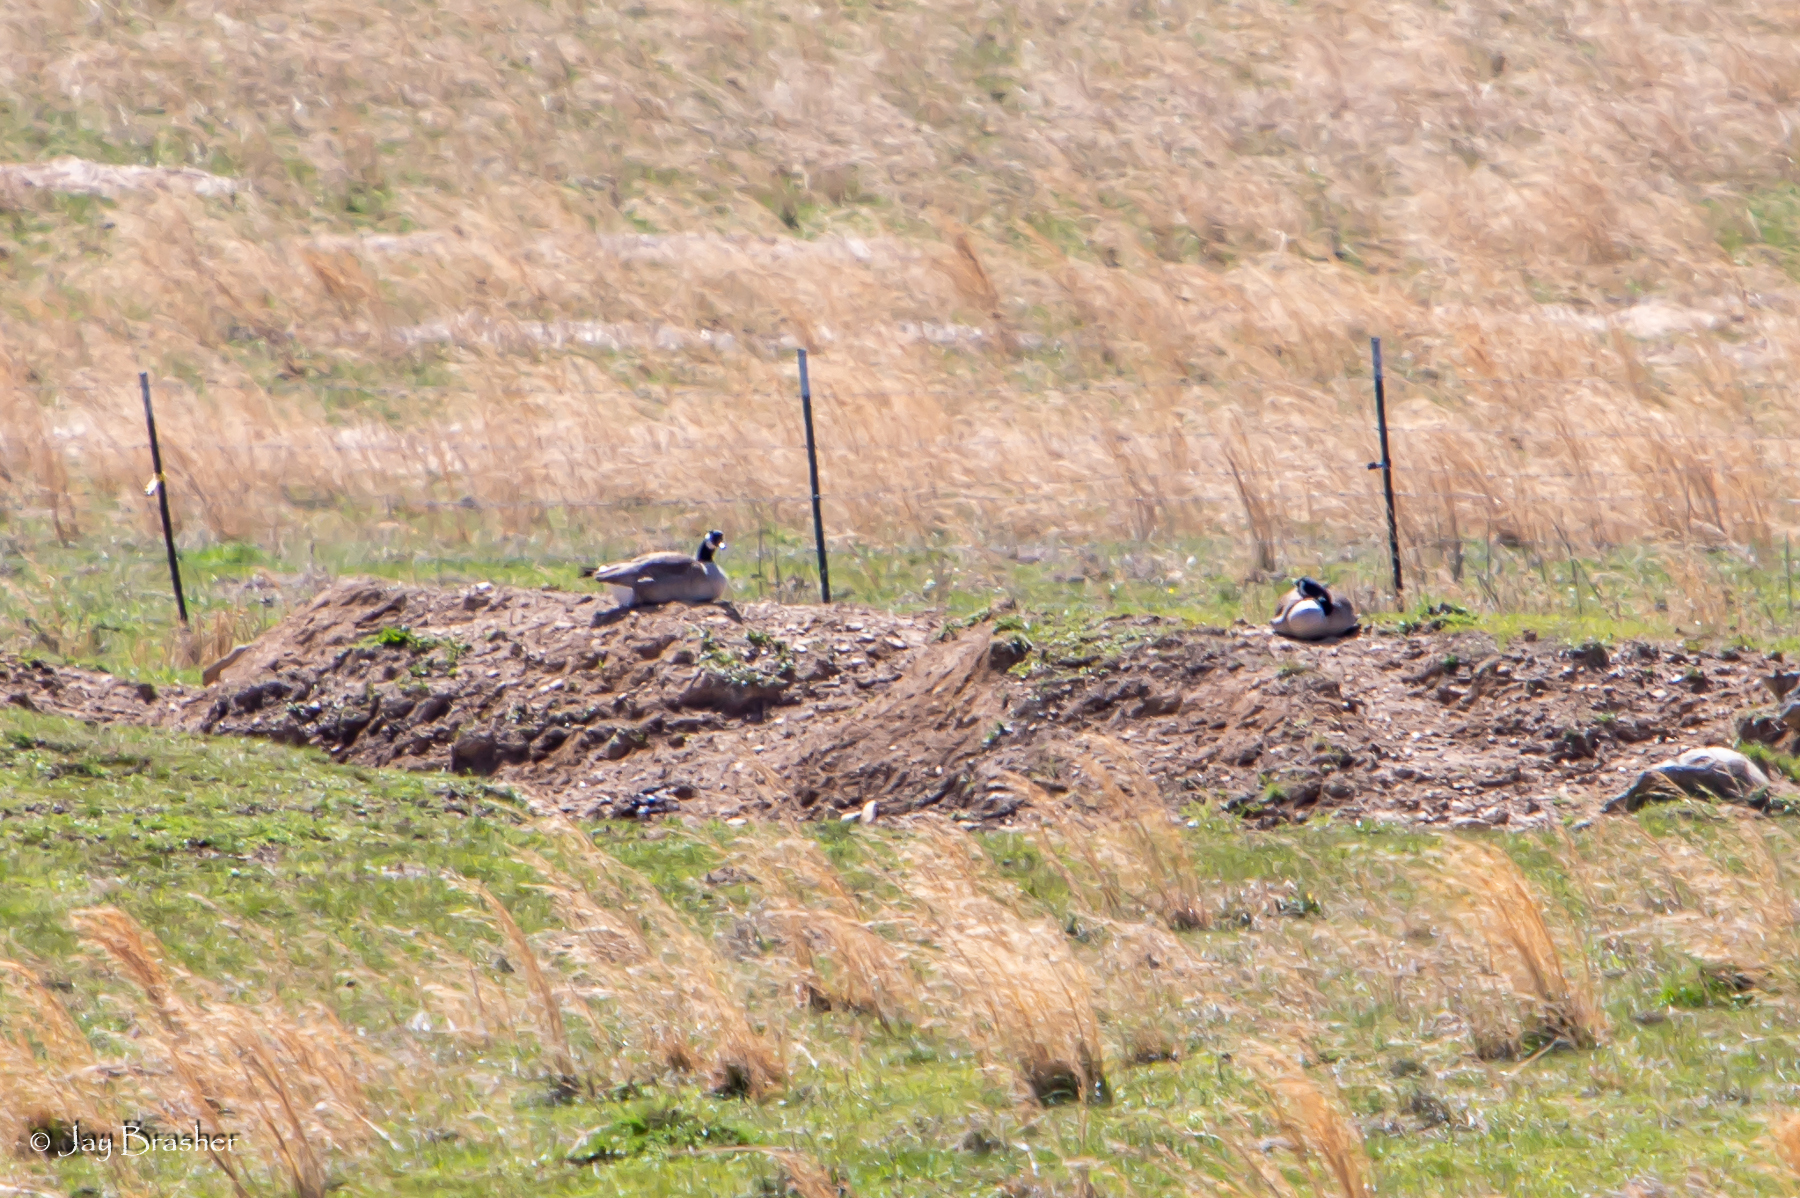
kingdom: Animalia
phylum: Chordata
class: Aves
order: Anseriformes
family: Anatidae
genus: Branta
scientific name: Branta canadensis
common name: Canada goose
